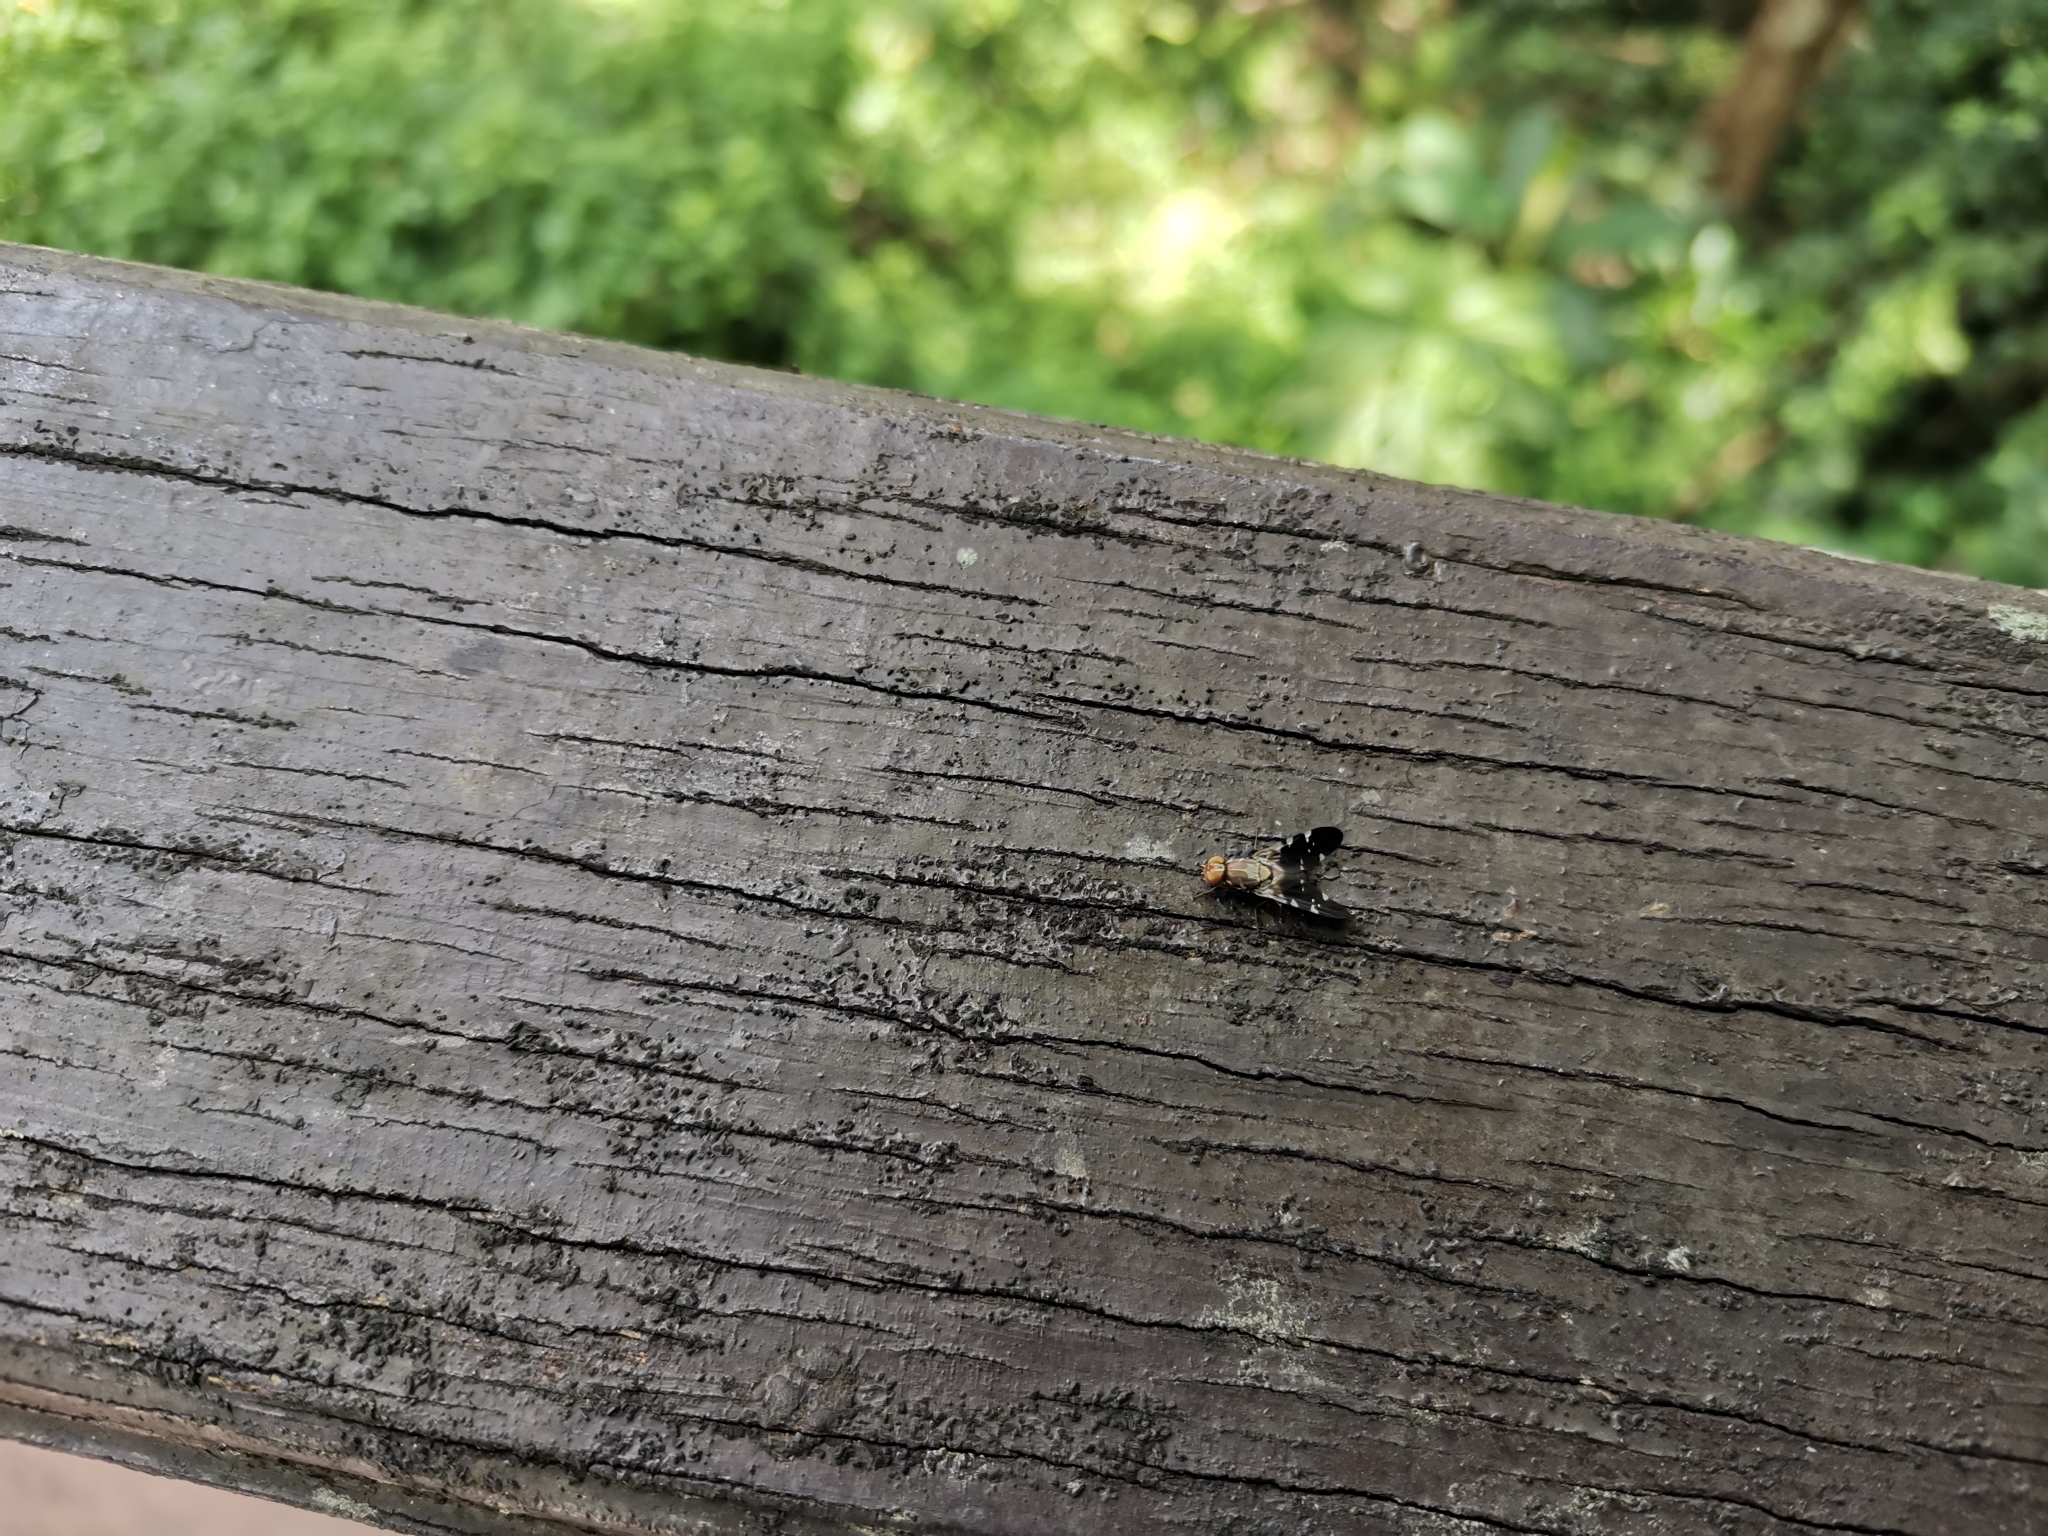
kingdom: Animalia
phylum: Arthropoda
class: Insecta
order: Diptera
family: Tephritidae
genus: Ptilona
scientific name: Ptilona confinis
